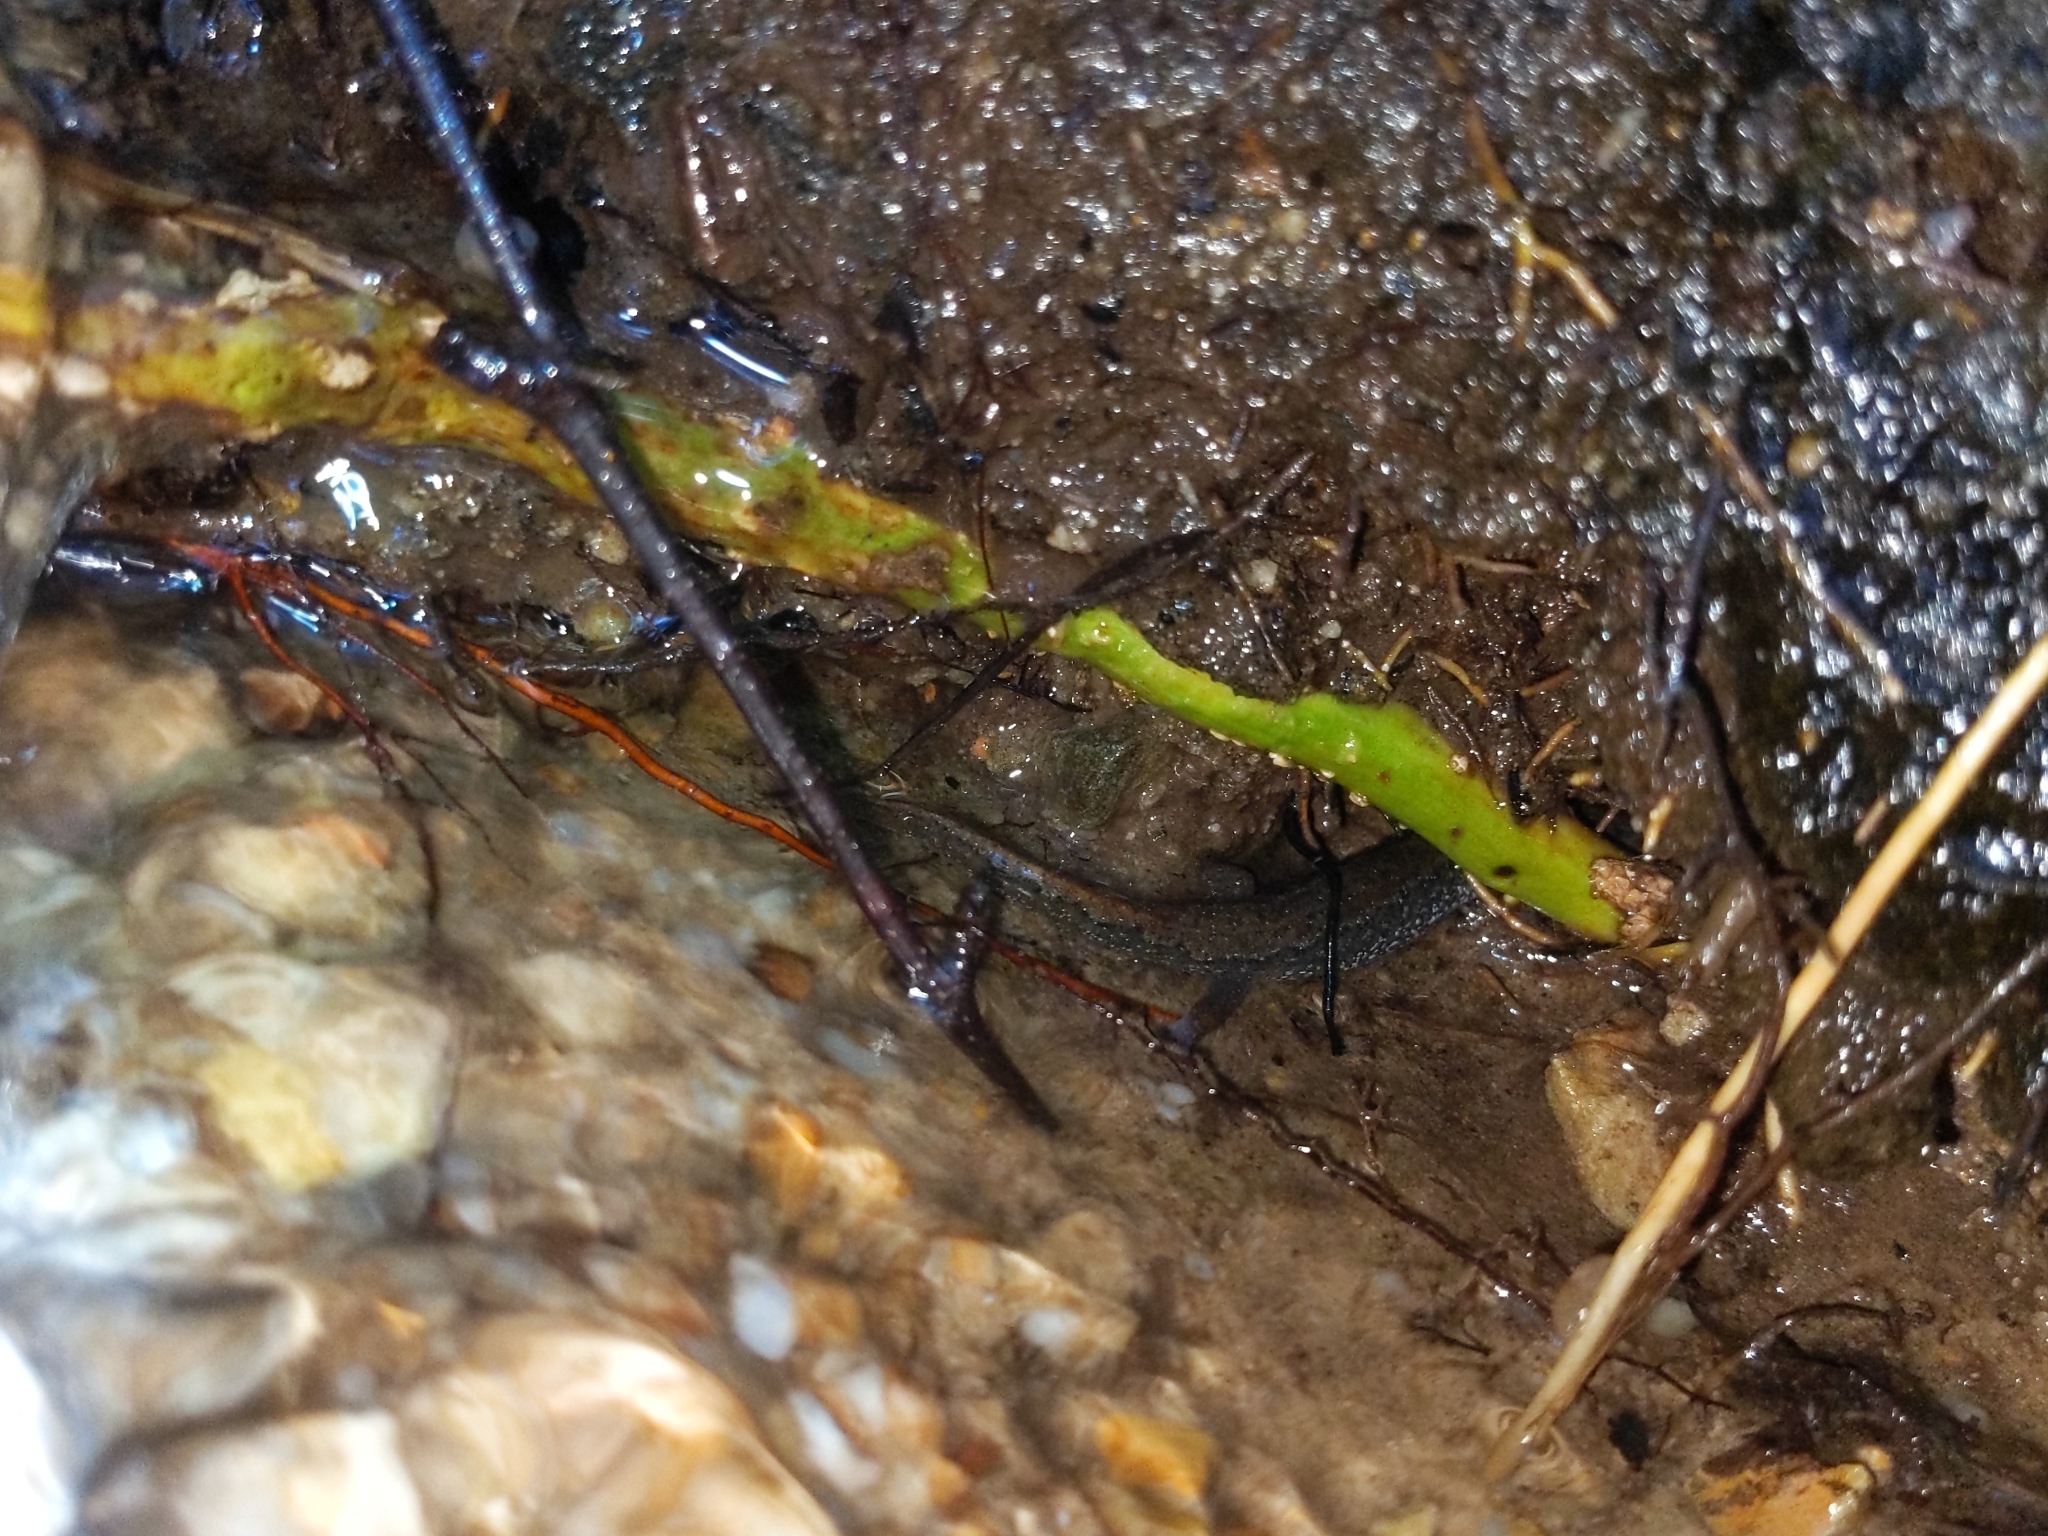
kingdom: Animalia
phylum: Chordata
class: Amphibia
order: Caudata
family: Plethodontidae
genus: Desmognathus
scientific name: Desmognathus fuscus
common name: Northern dusky salamander
